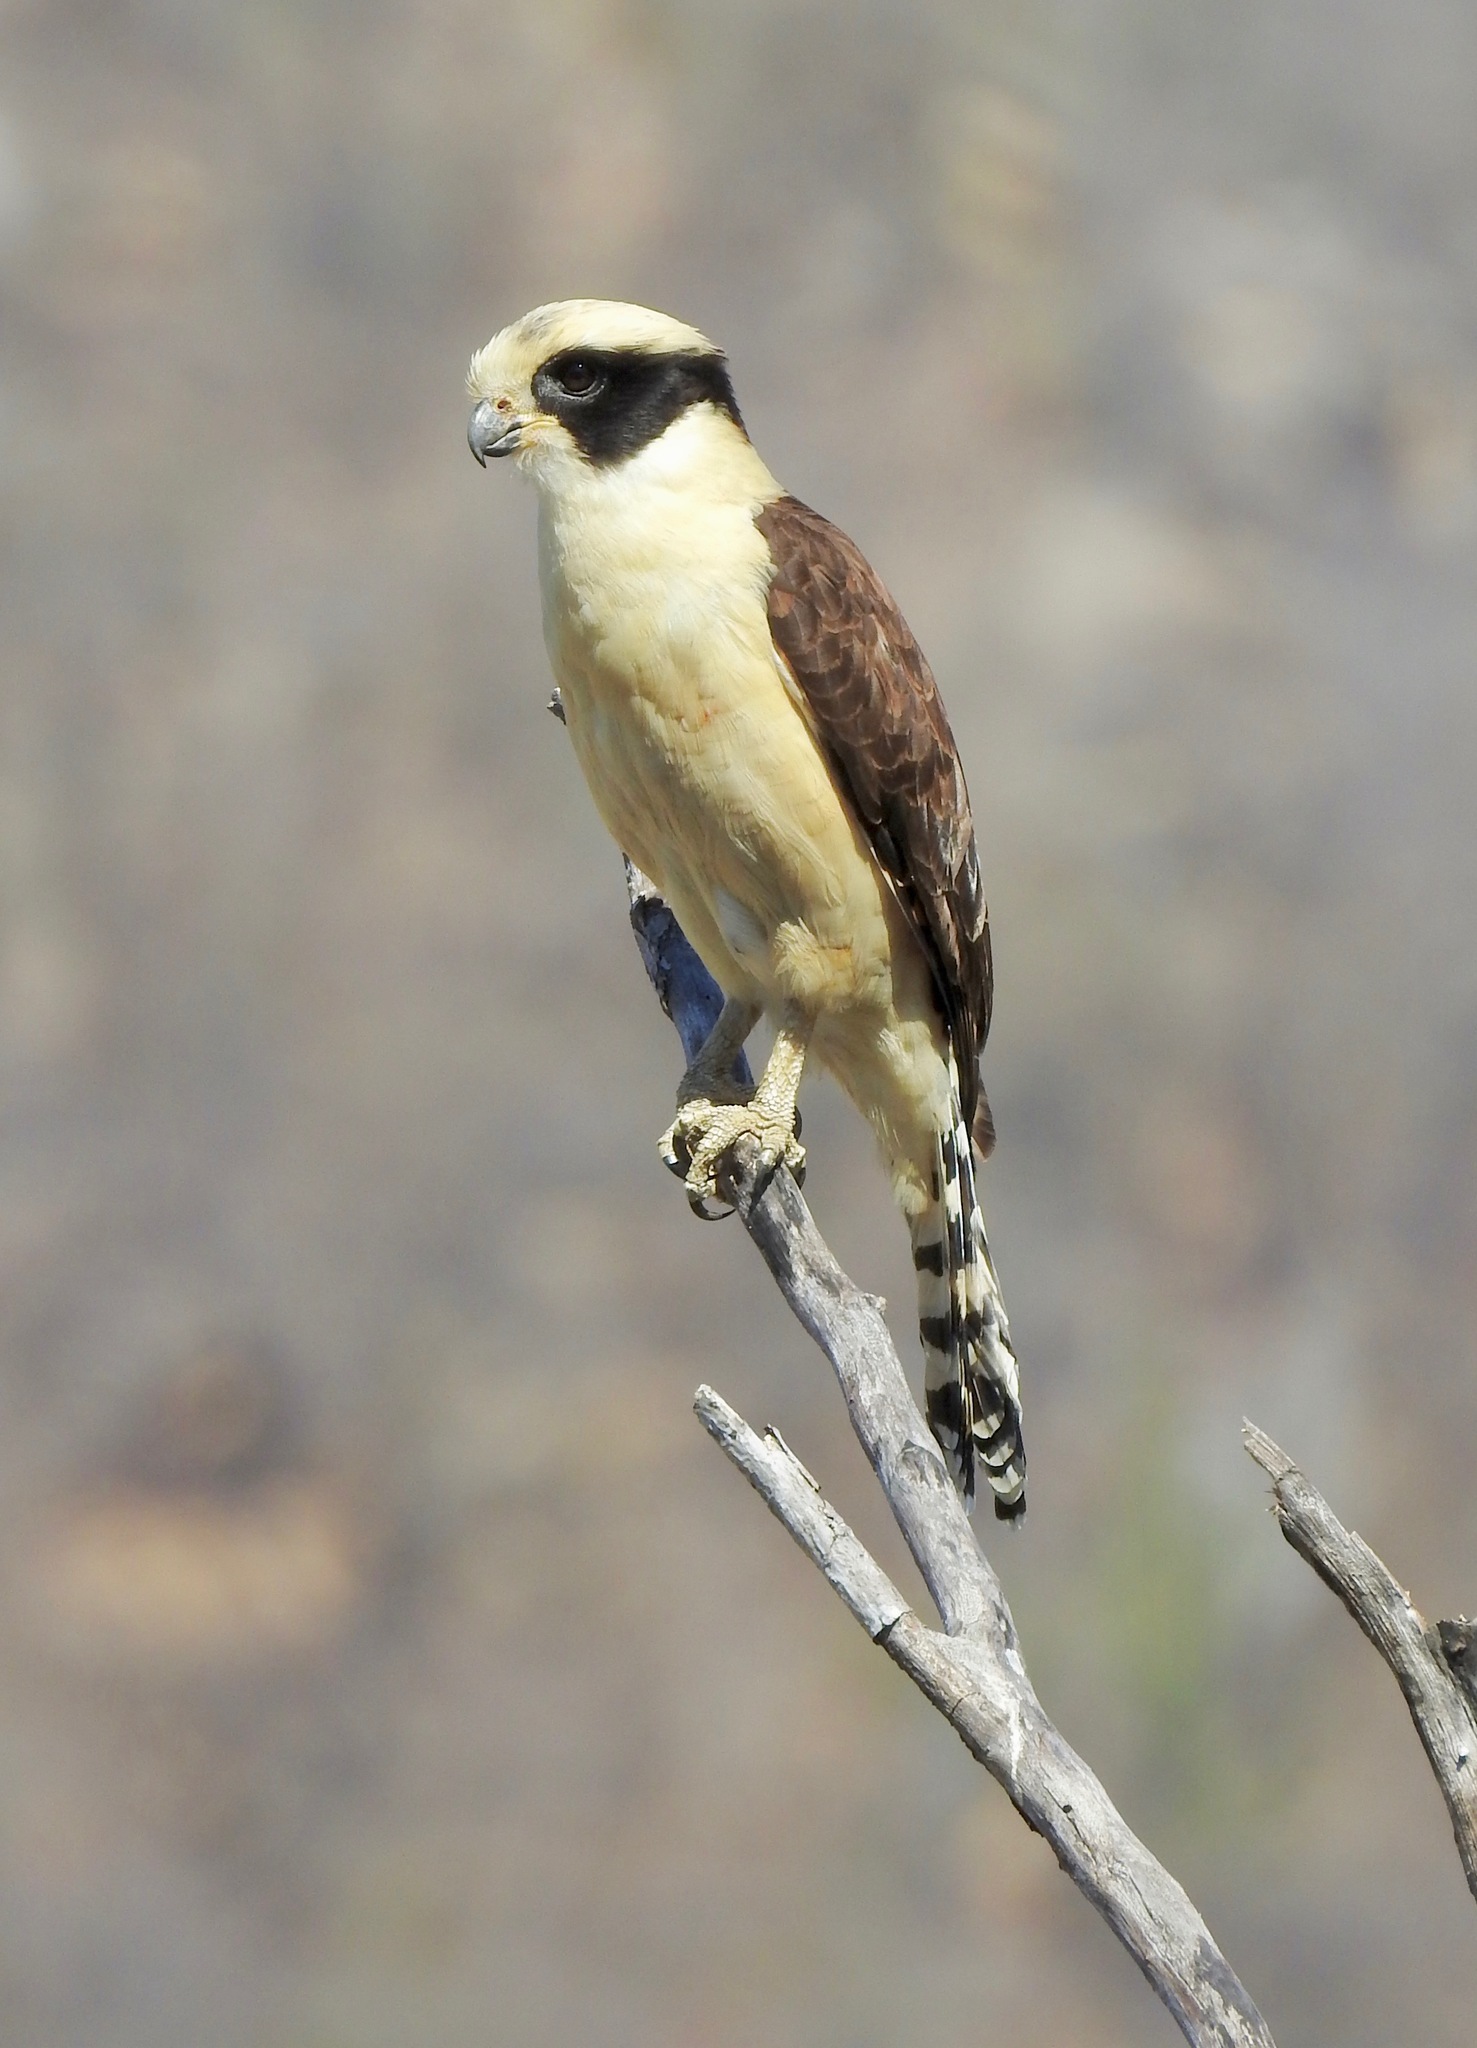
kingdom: Animalia
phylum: Chordata
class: Aves
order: Falconiformes
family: Falconidae
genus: Herpetotheres
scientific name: Herpetotheres cachinnans
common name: Laughing falcon
